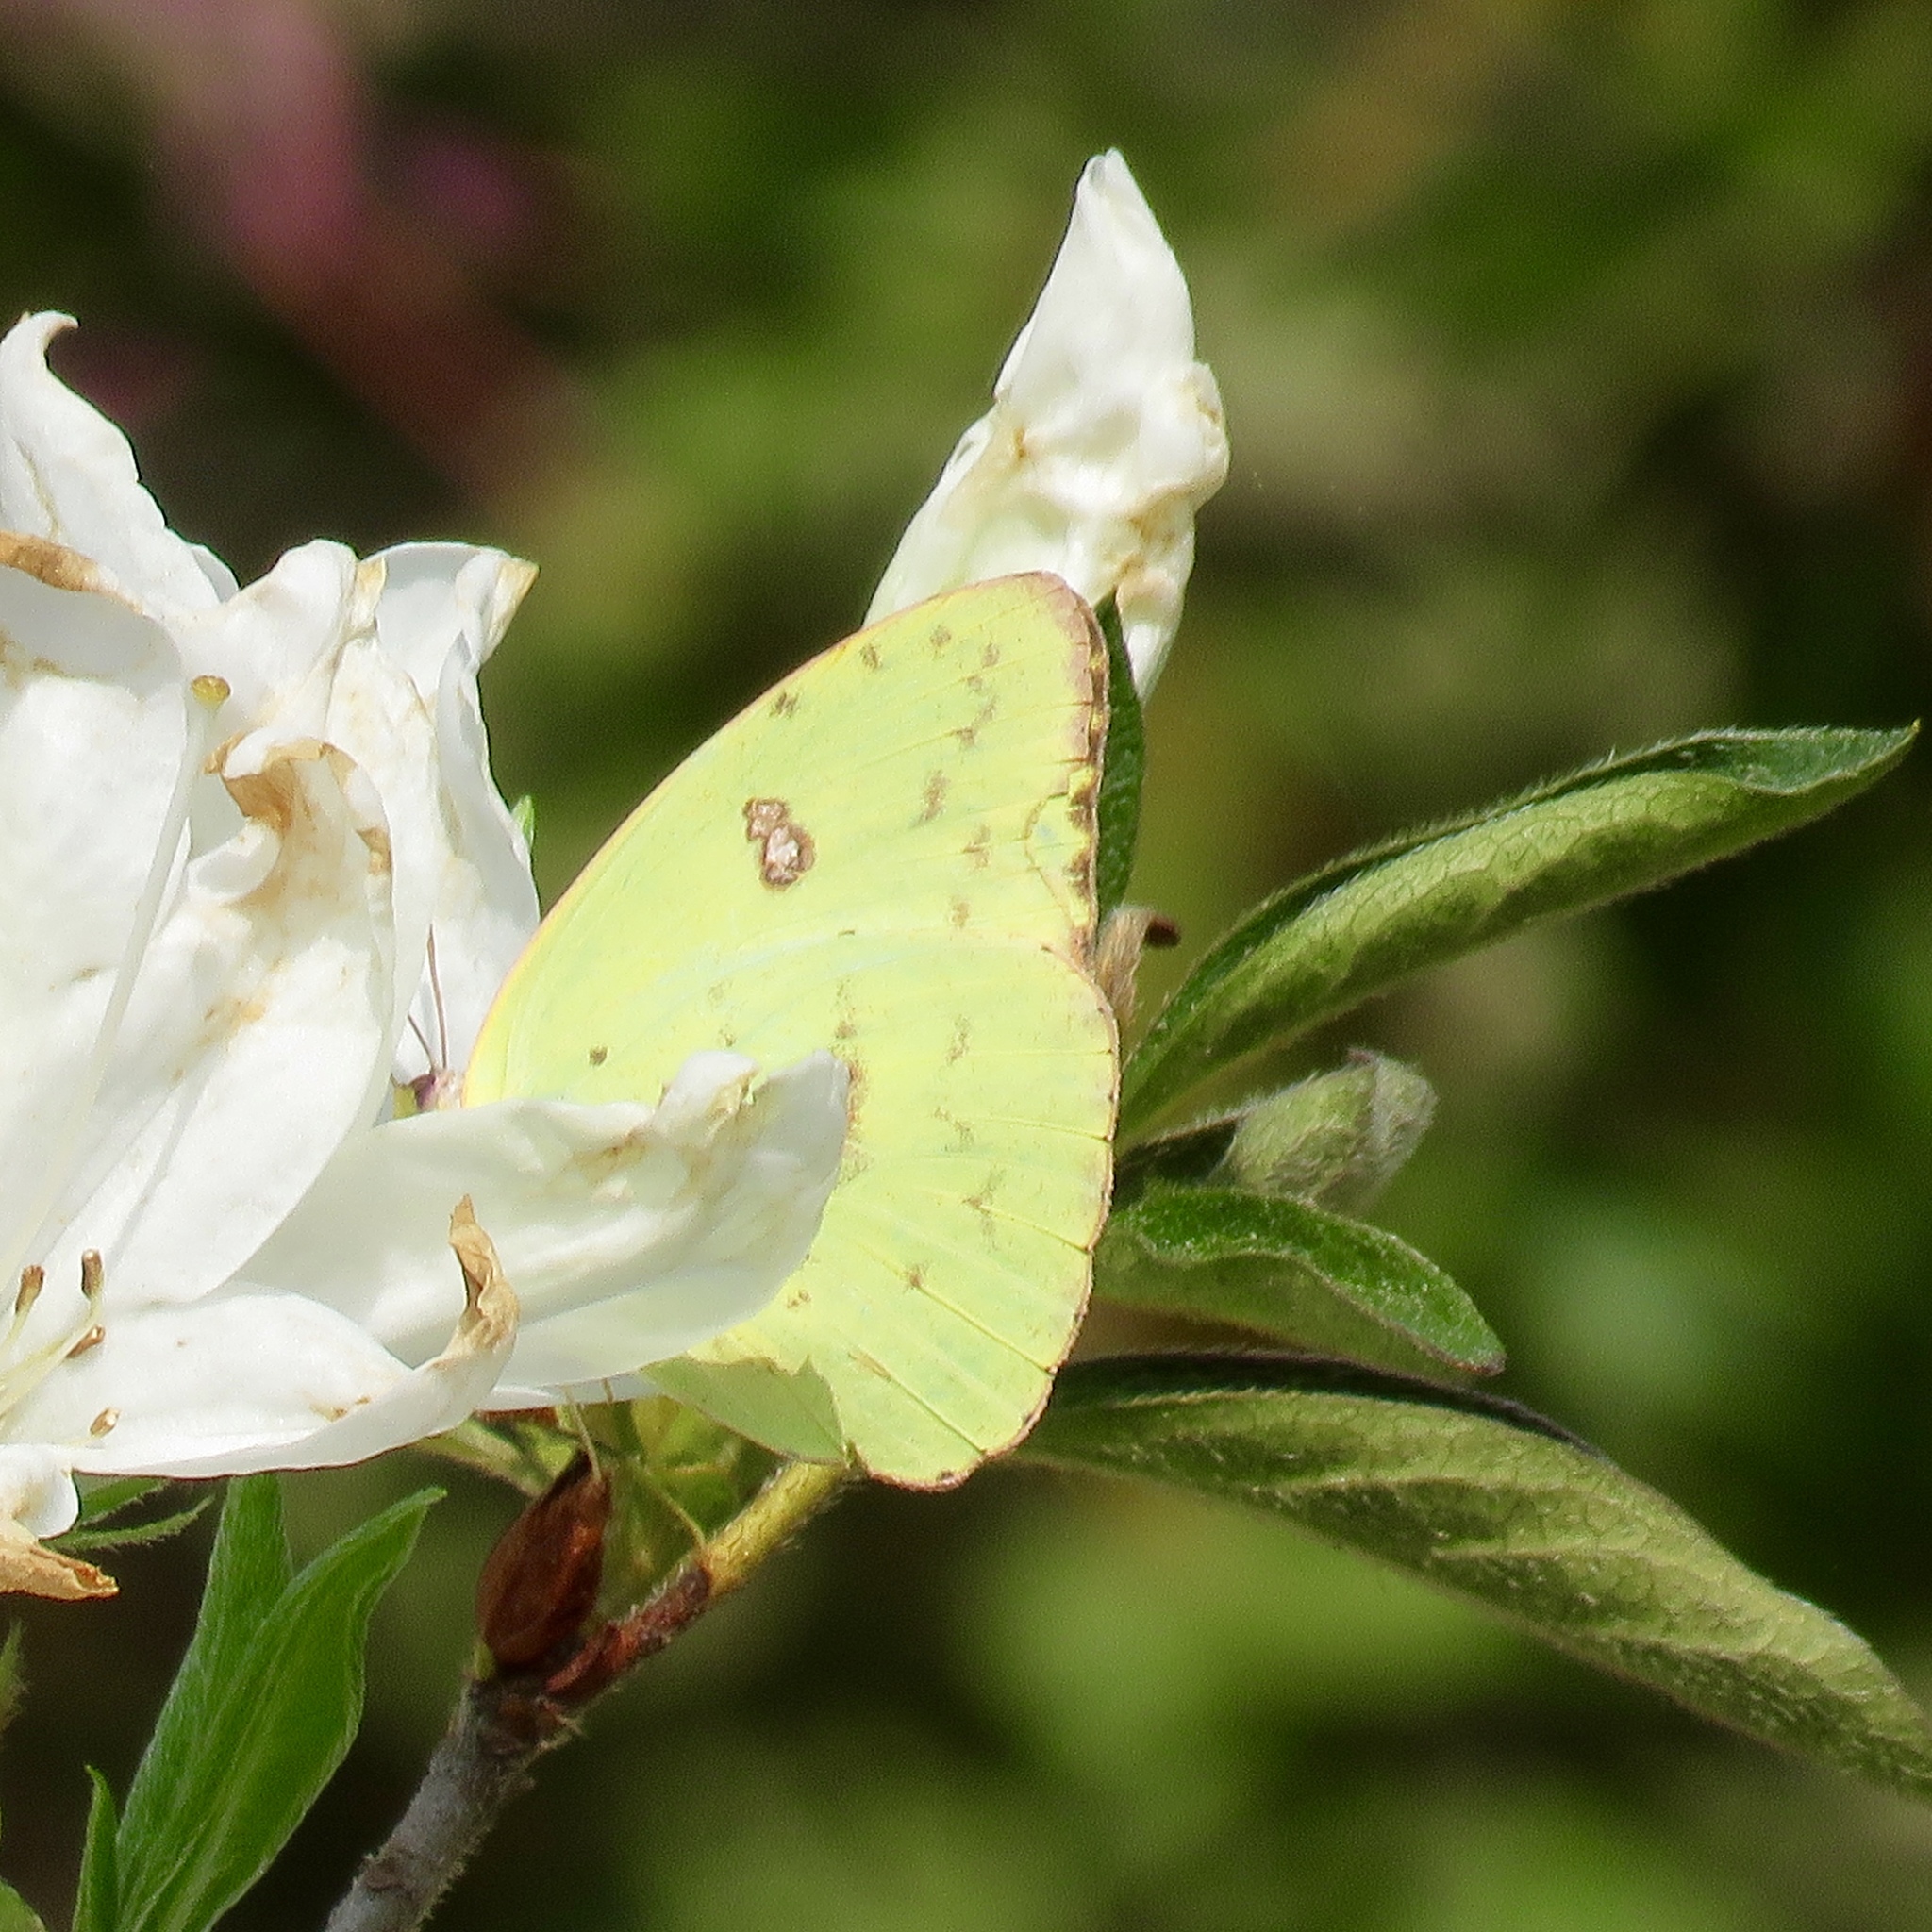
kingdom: Animalia
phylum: Arthropoda
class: Insecta
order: Lepidoptera
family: Pieridae
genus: Phoebis
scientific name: Phoebis sennae
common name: Cloudless sulphur
